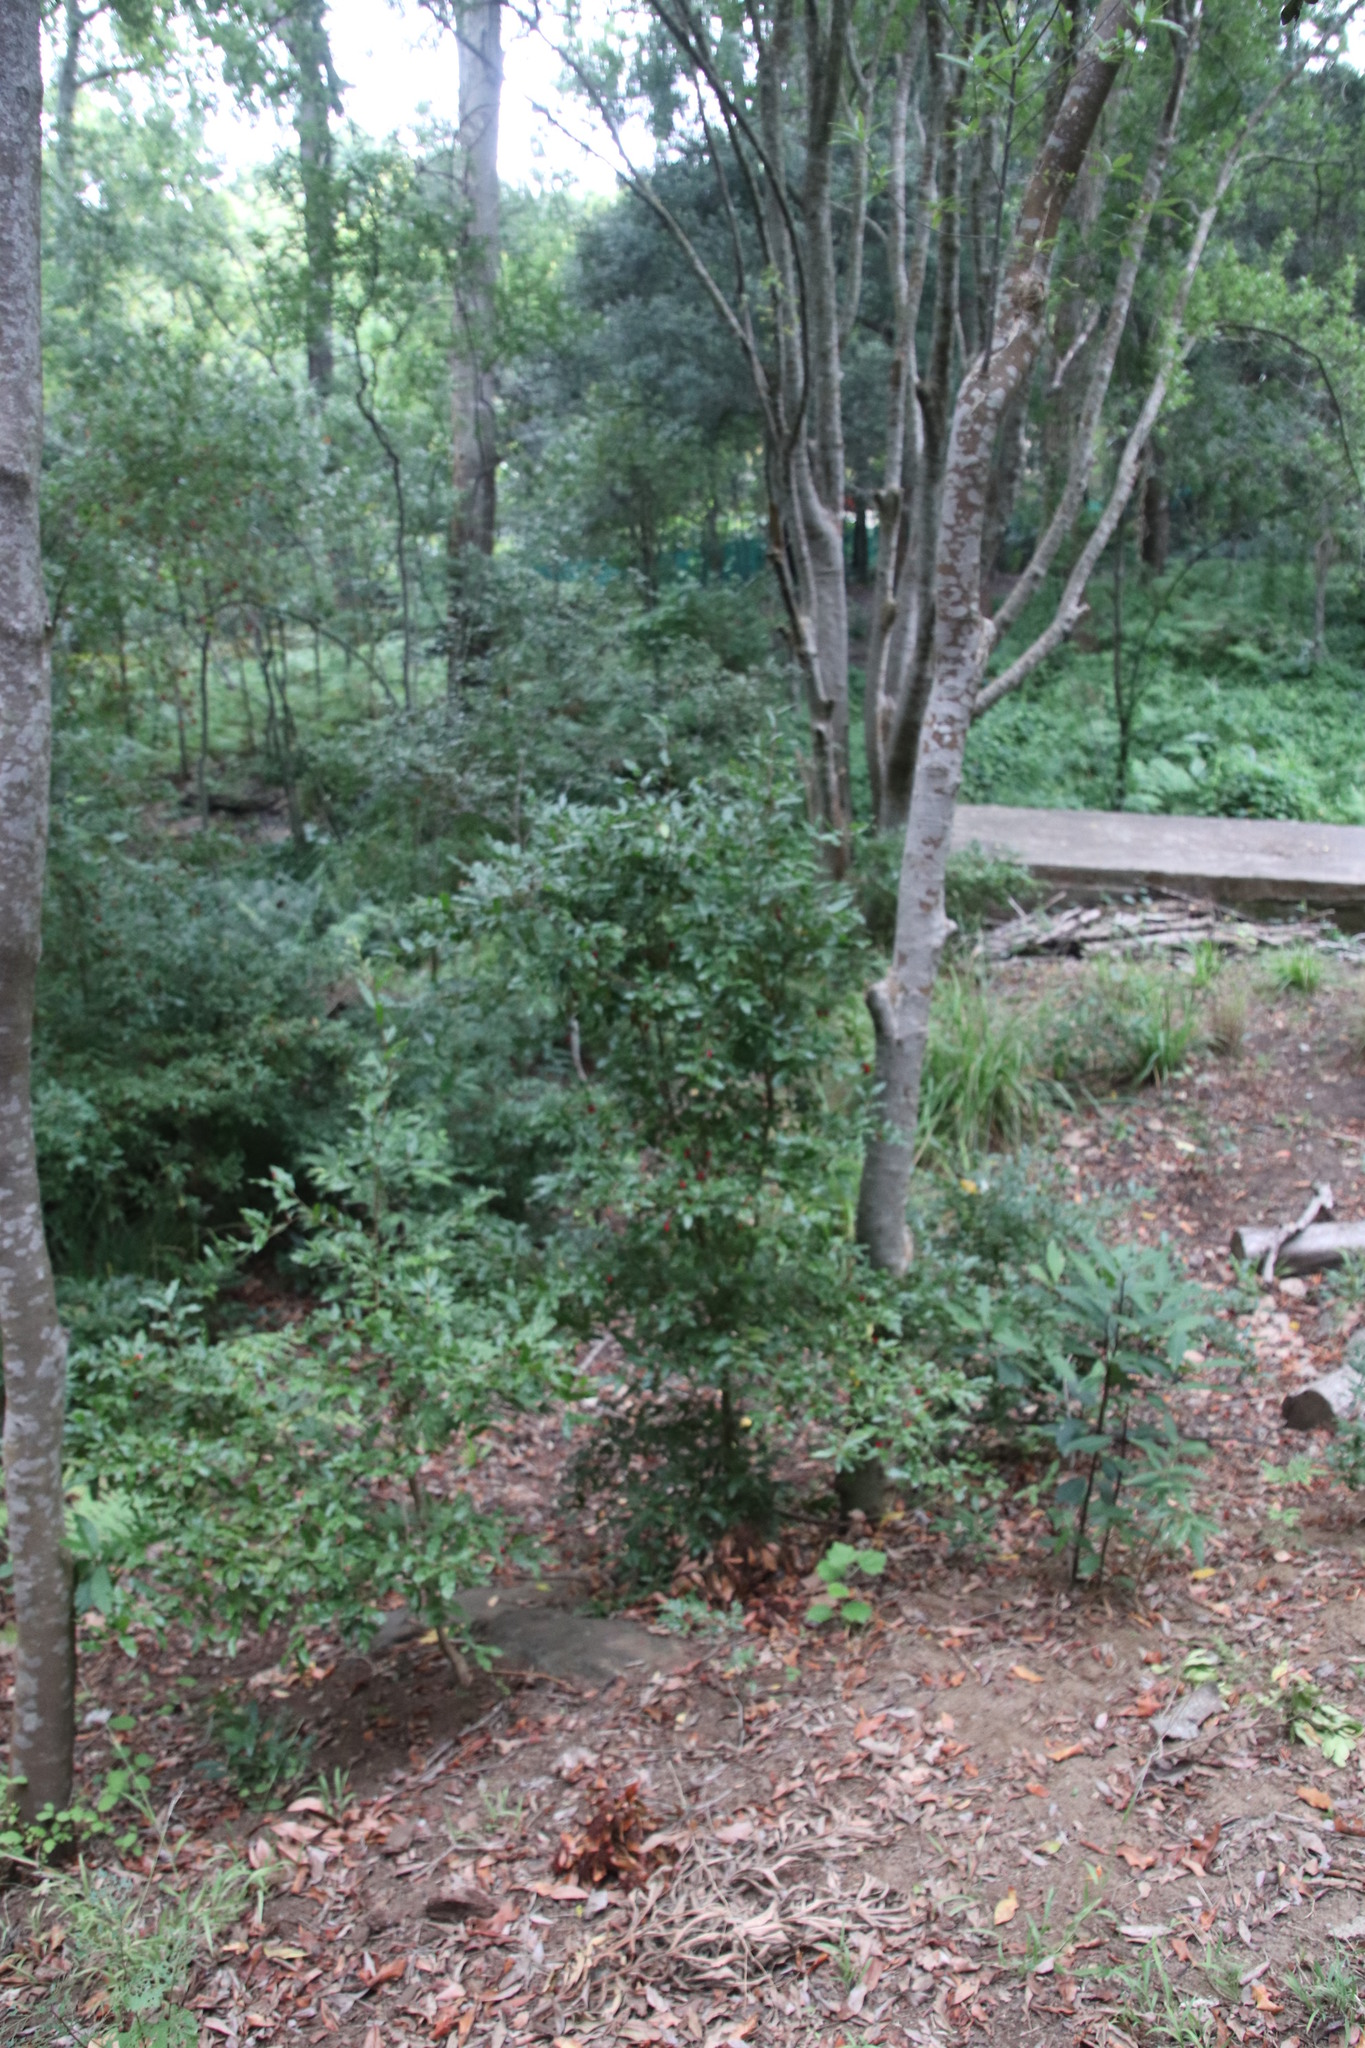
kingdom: Plantae
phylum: Tracheophyta
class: Magnoliopsida
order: Malpighiales
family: Ochnaceae
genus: Ochna
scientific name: Ochna serrulata
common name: Mickey mouse plant
